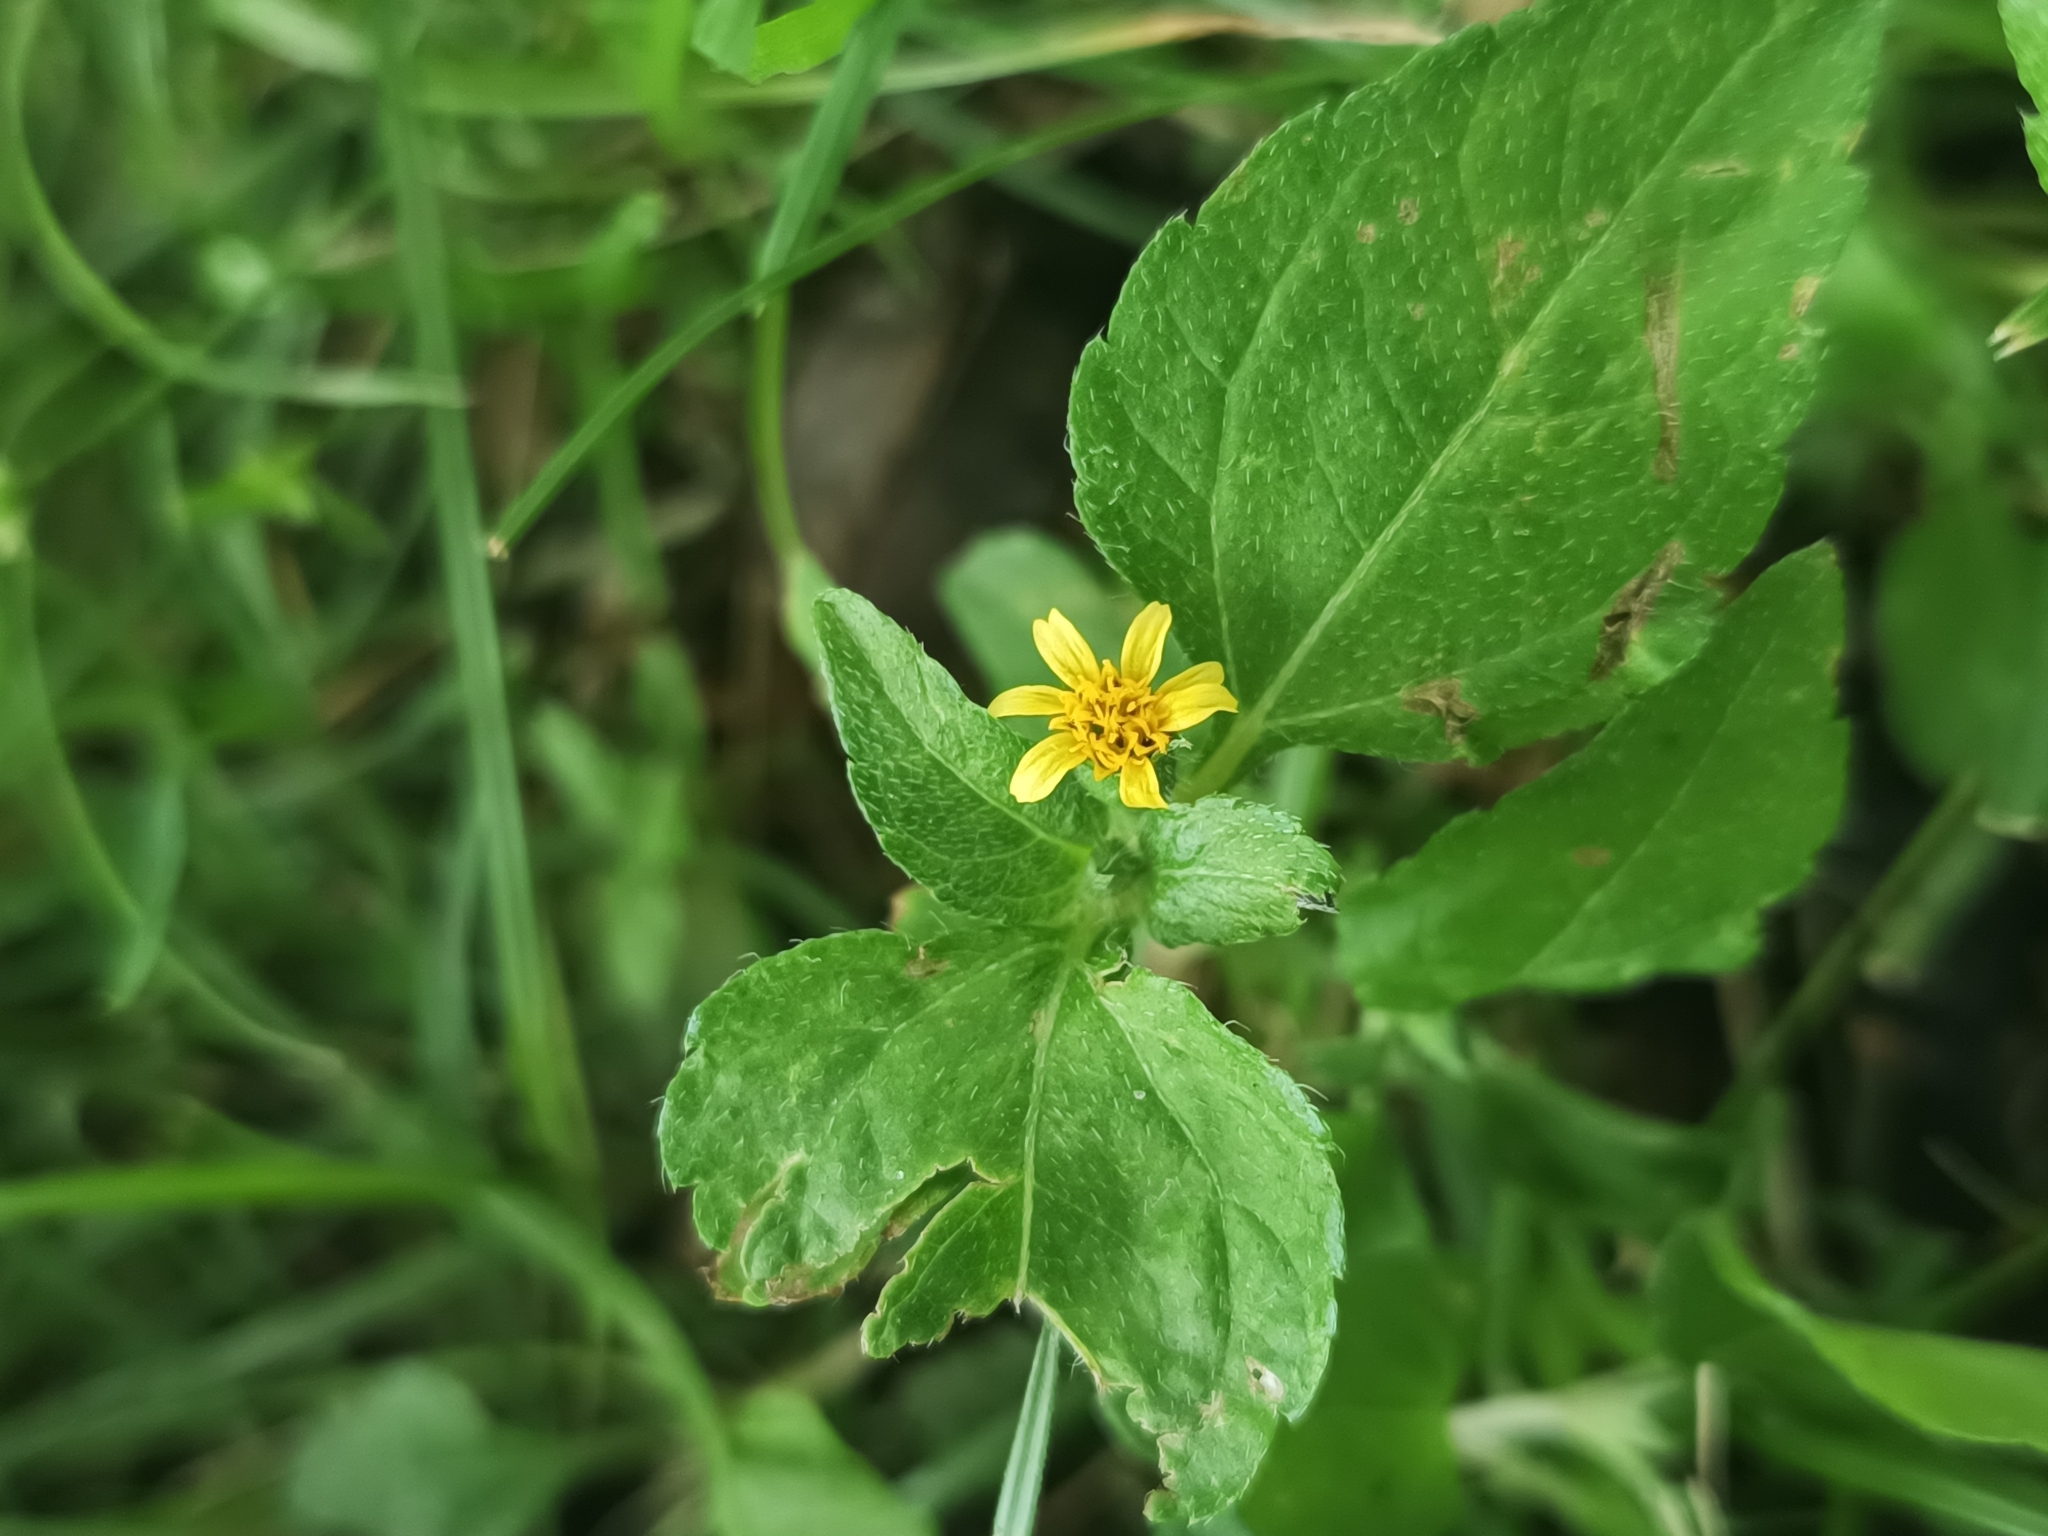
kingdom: Plantae
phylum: Tracheophyta
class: Magnoliopsida
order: Asterales
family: Asteraceae
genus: Calyptocarpus
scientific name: Calyptocarpus vialis
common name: Straggler daisy
